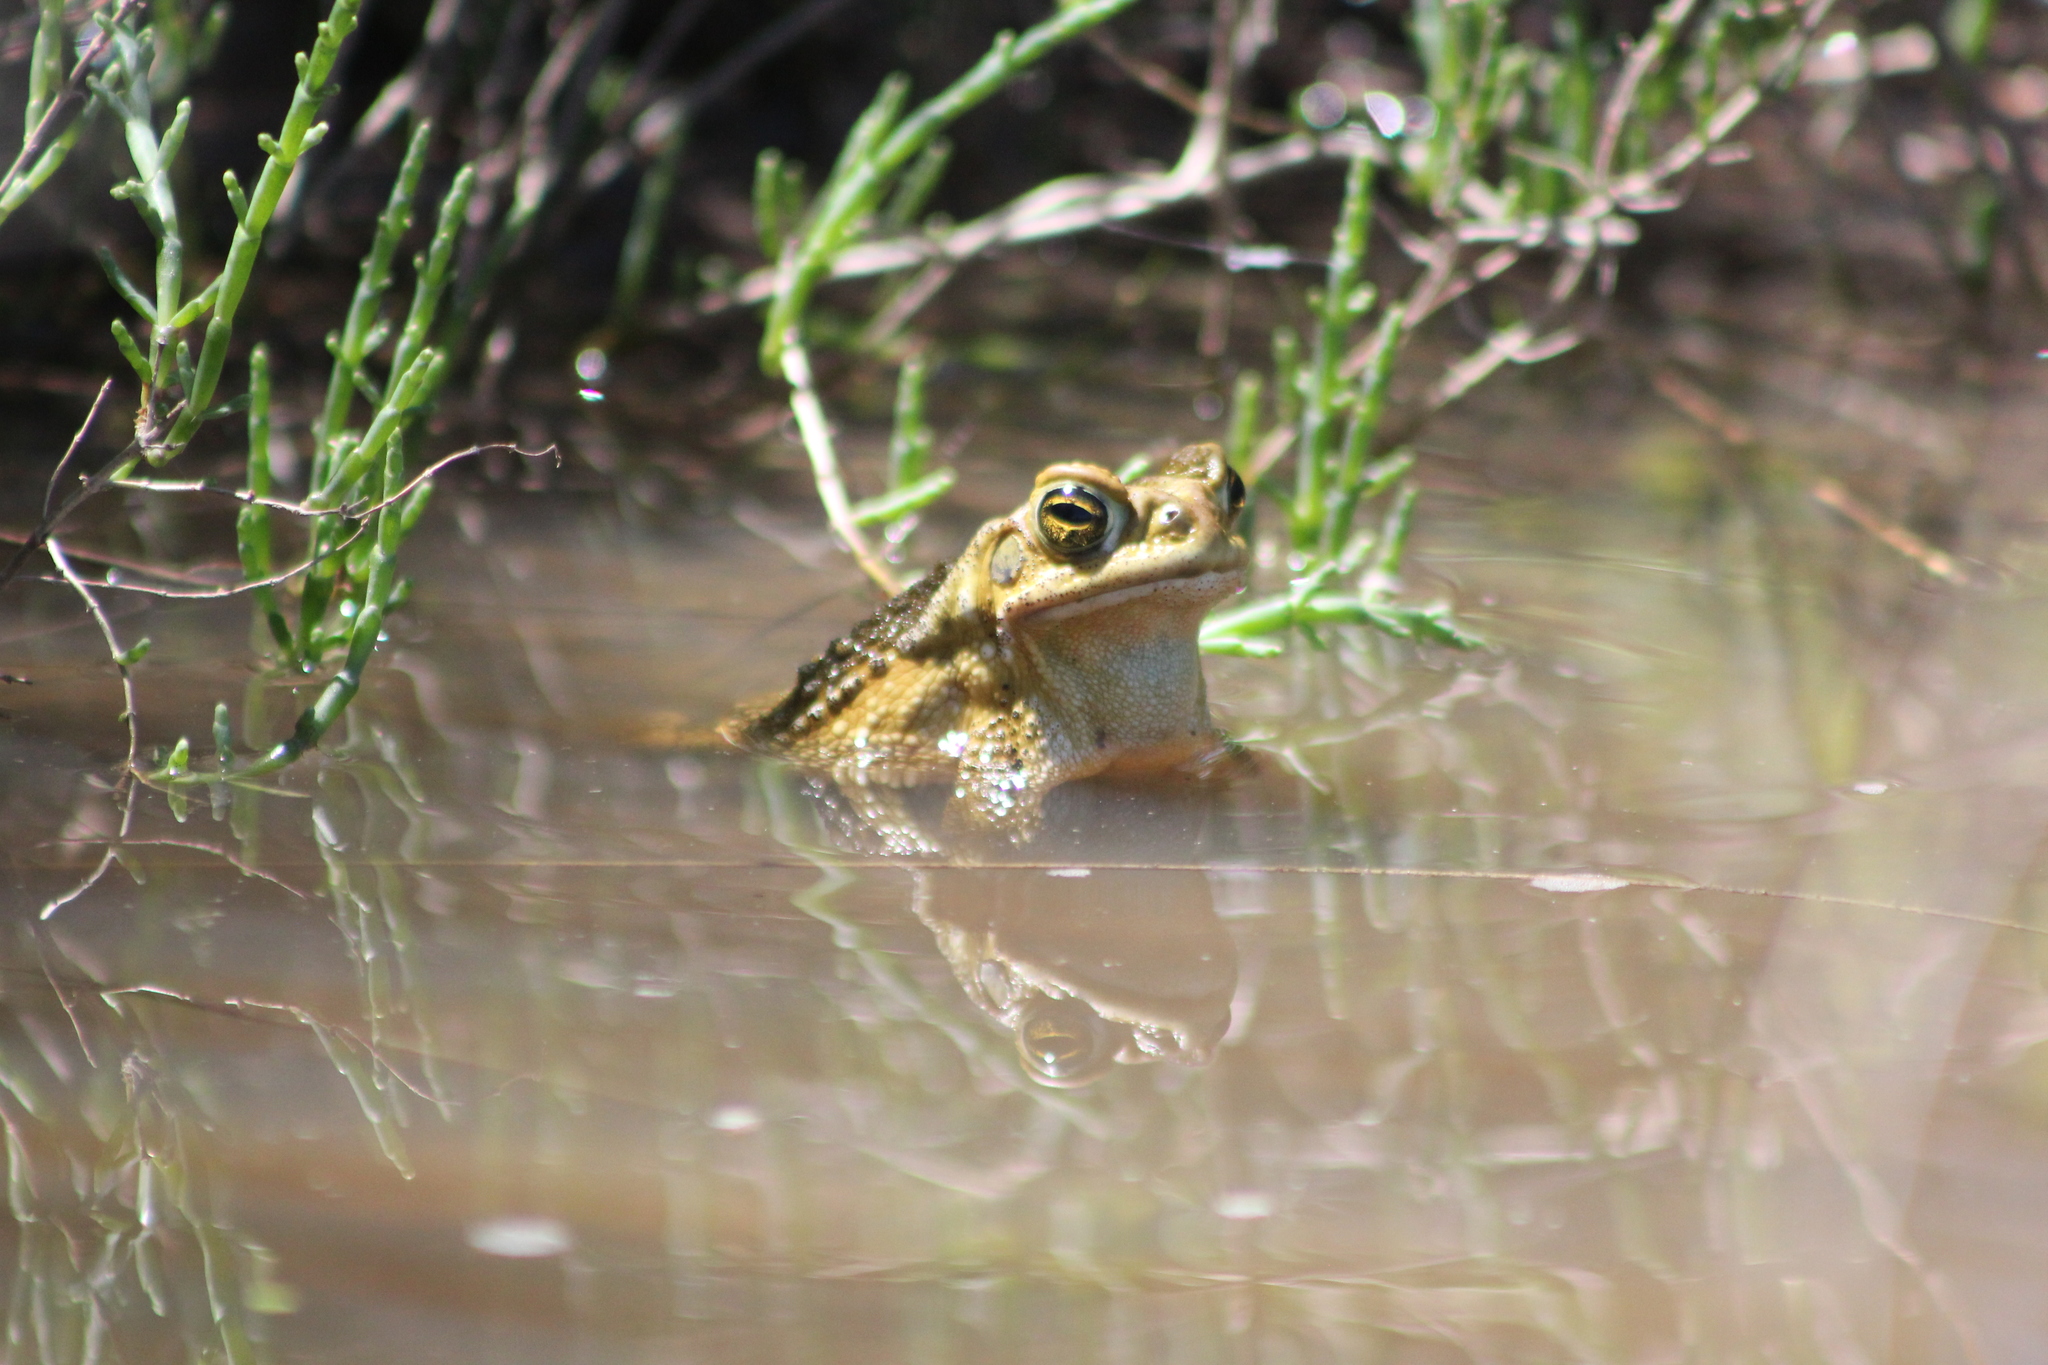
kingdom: Animalia
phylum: Chordata
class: Amphibia
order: Anura
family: Bufonidae
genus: Rhinella
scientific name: Rhinella arenarum
